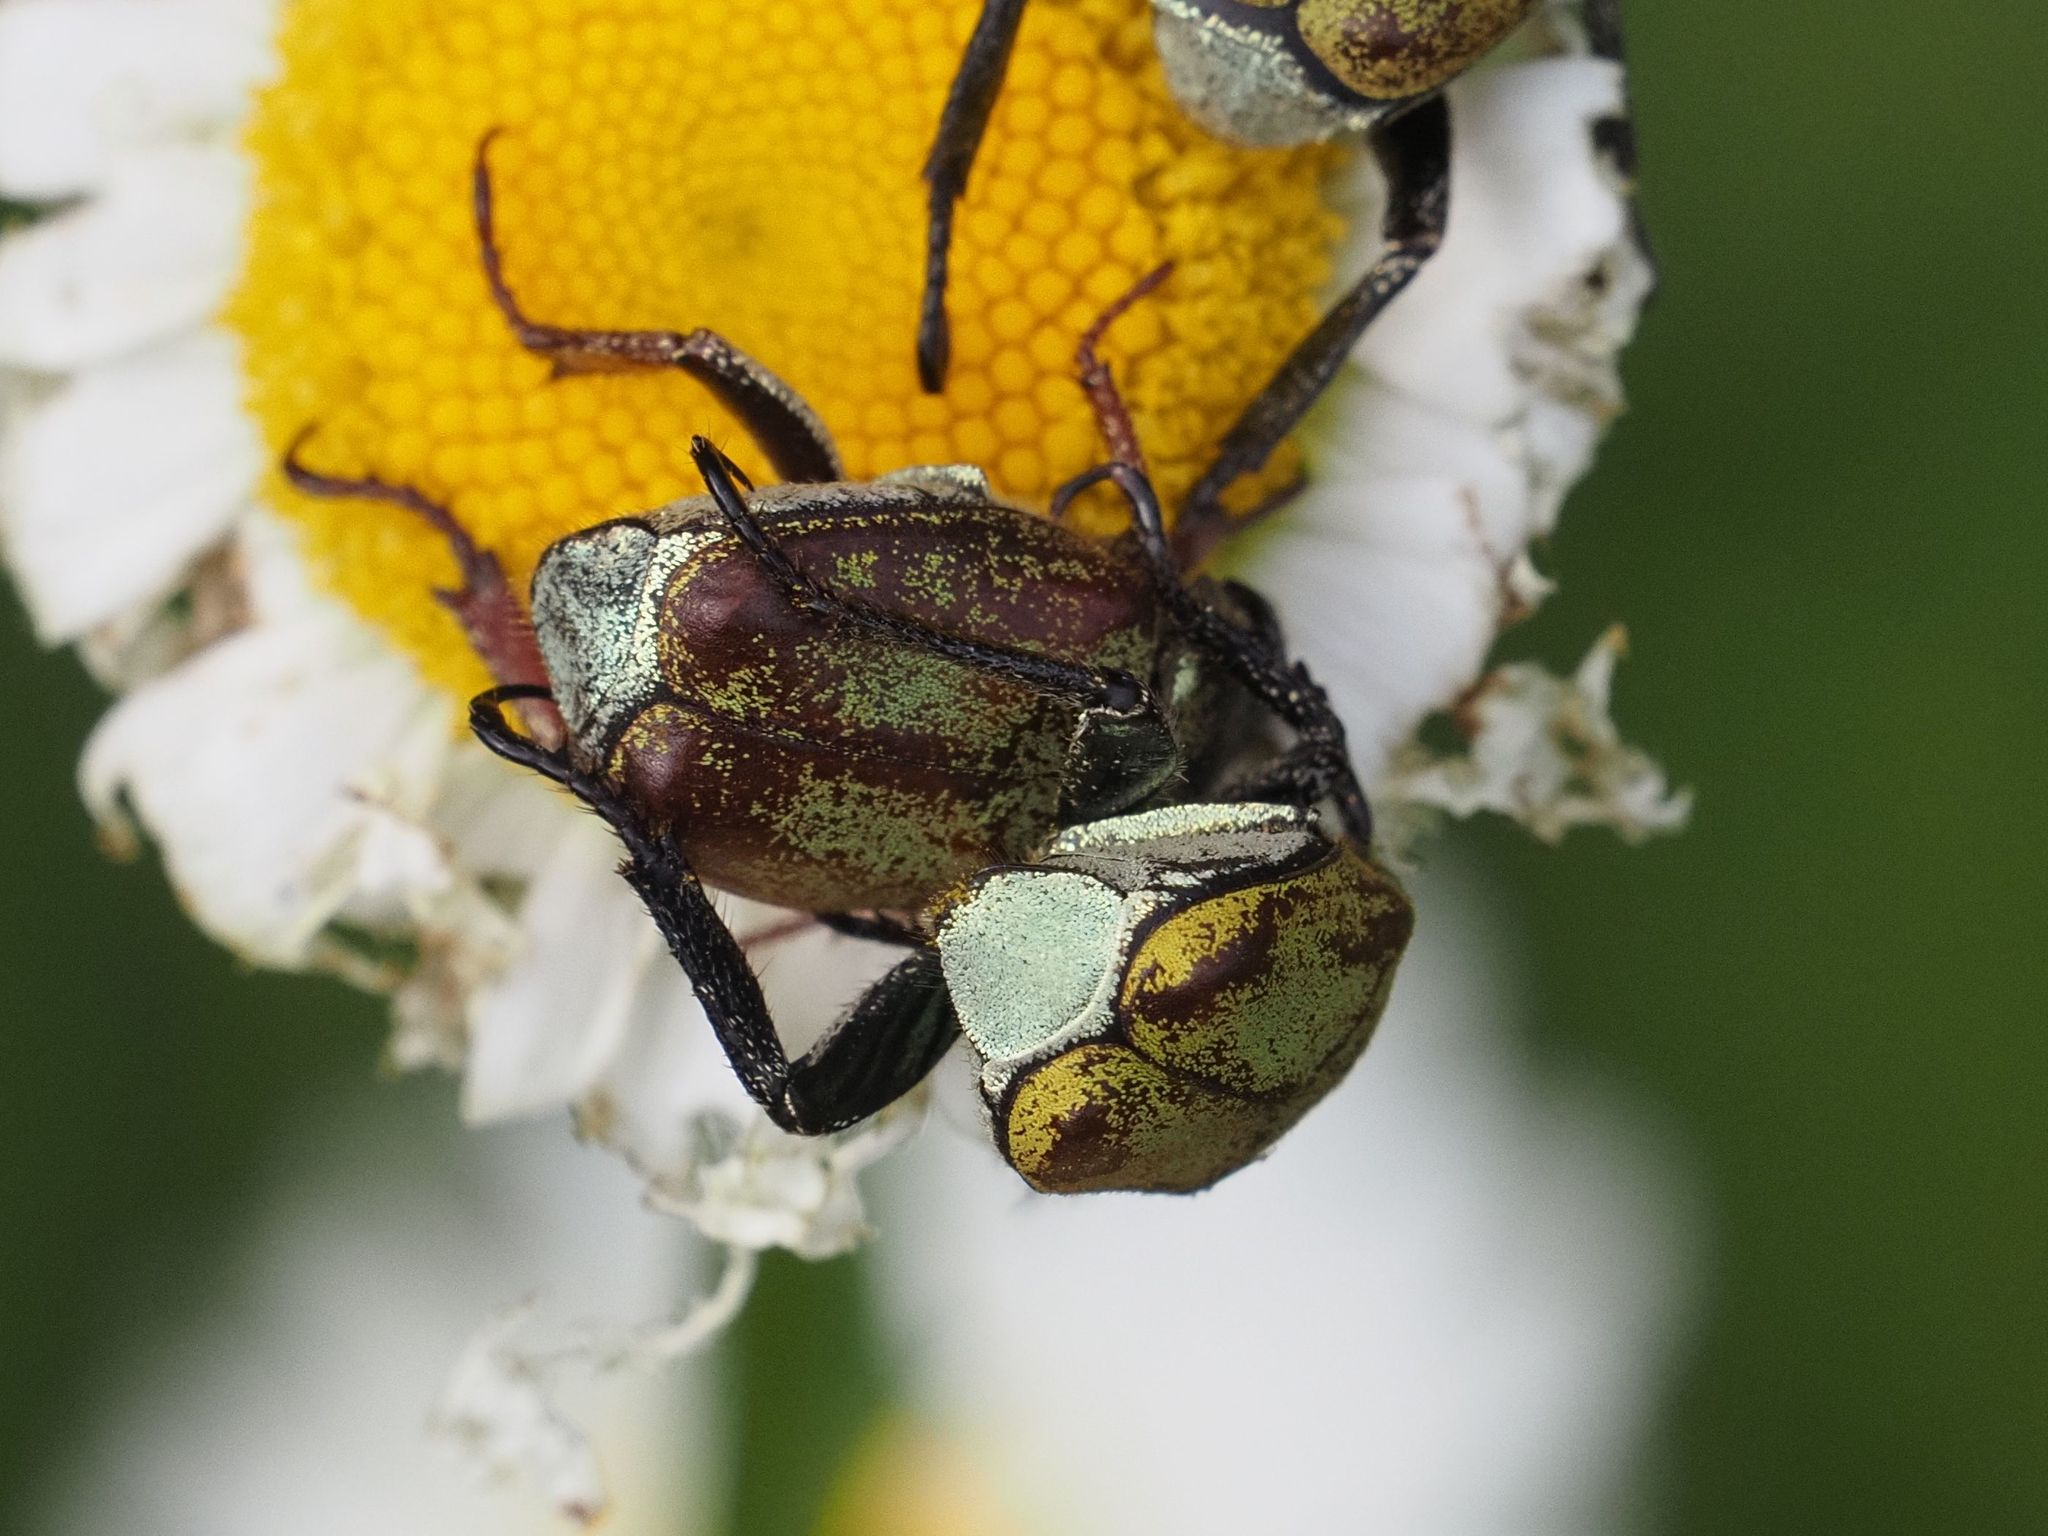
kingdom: Animalia
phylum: Arthropoda
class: Insecta
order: Coleoptera
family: Scarabaeidae
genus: Hoplia
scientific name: Hoplia argentea
